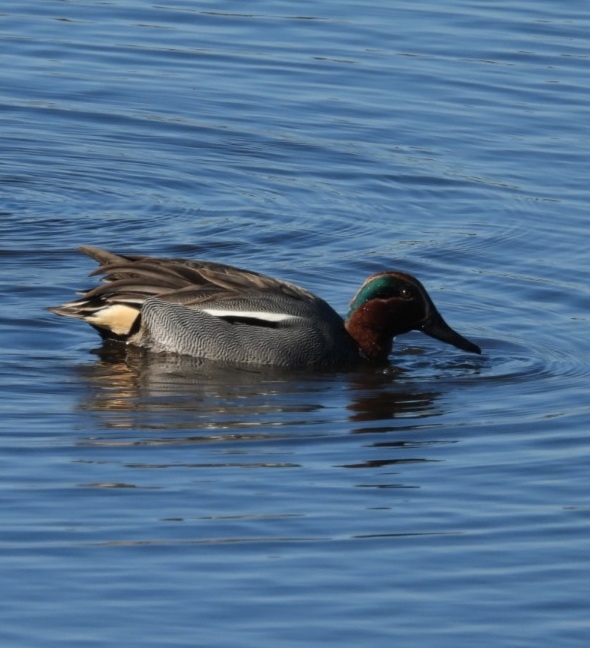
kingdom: Animalia
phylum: Chordata
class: Aves
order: Anseriformes
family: Anatidae
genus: Anas
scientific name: Anas crecca
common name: Eurasian teal
